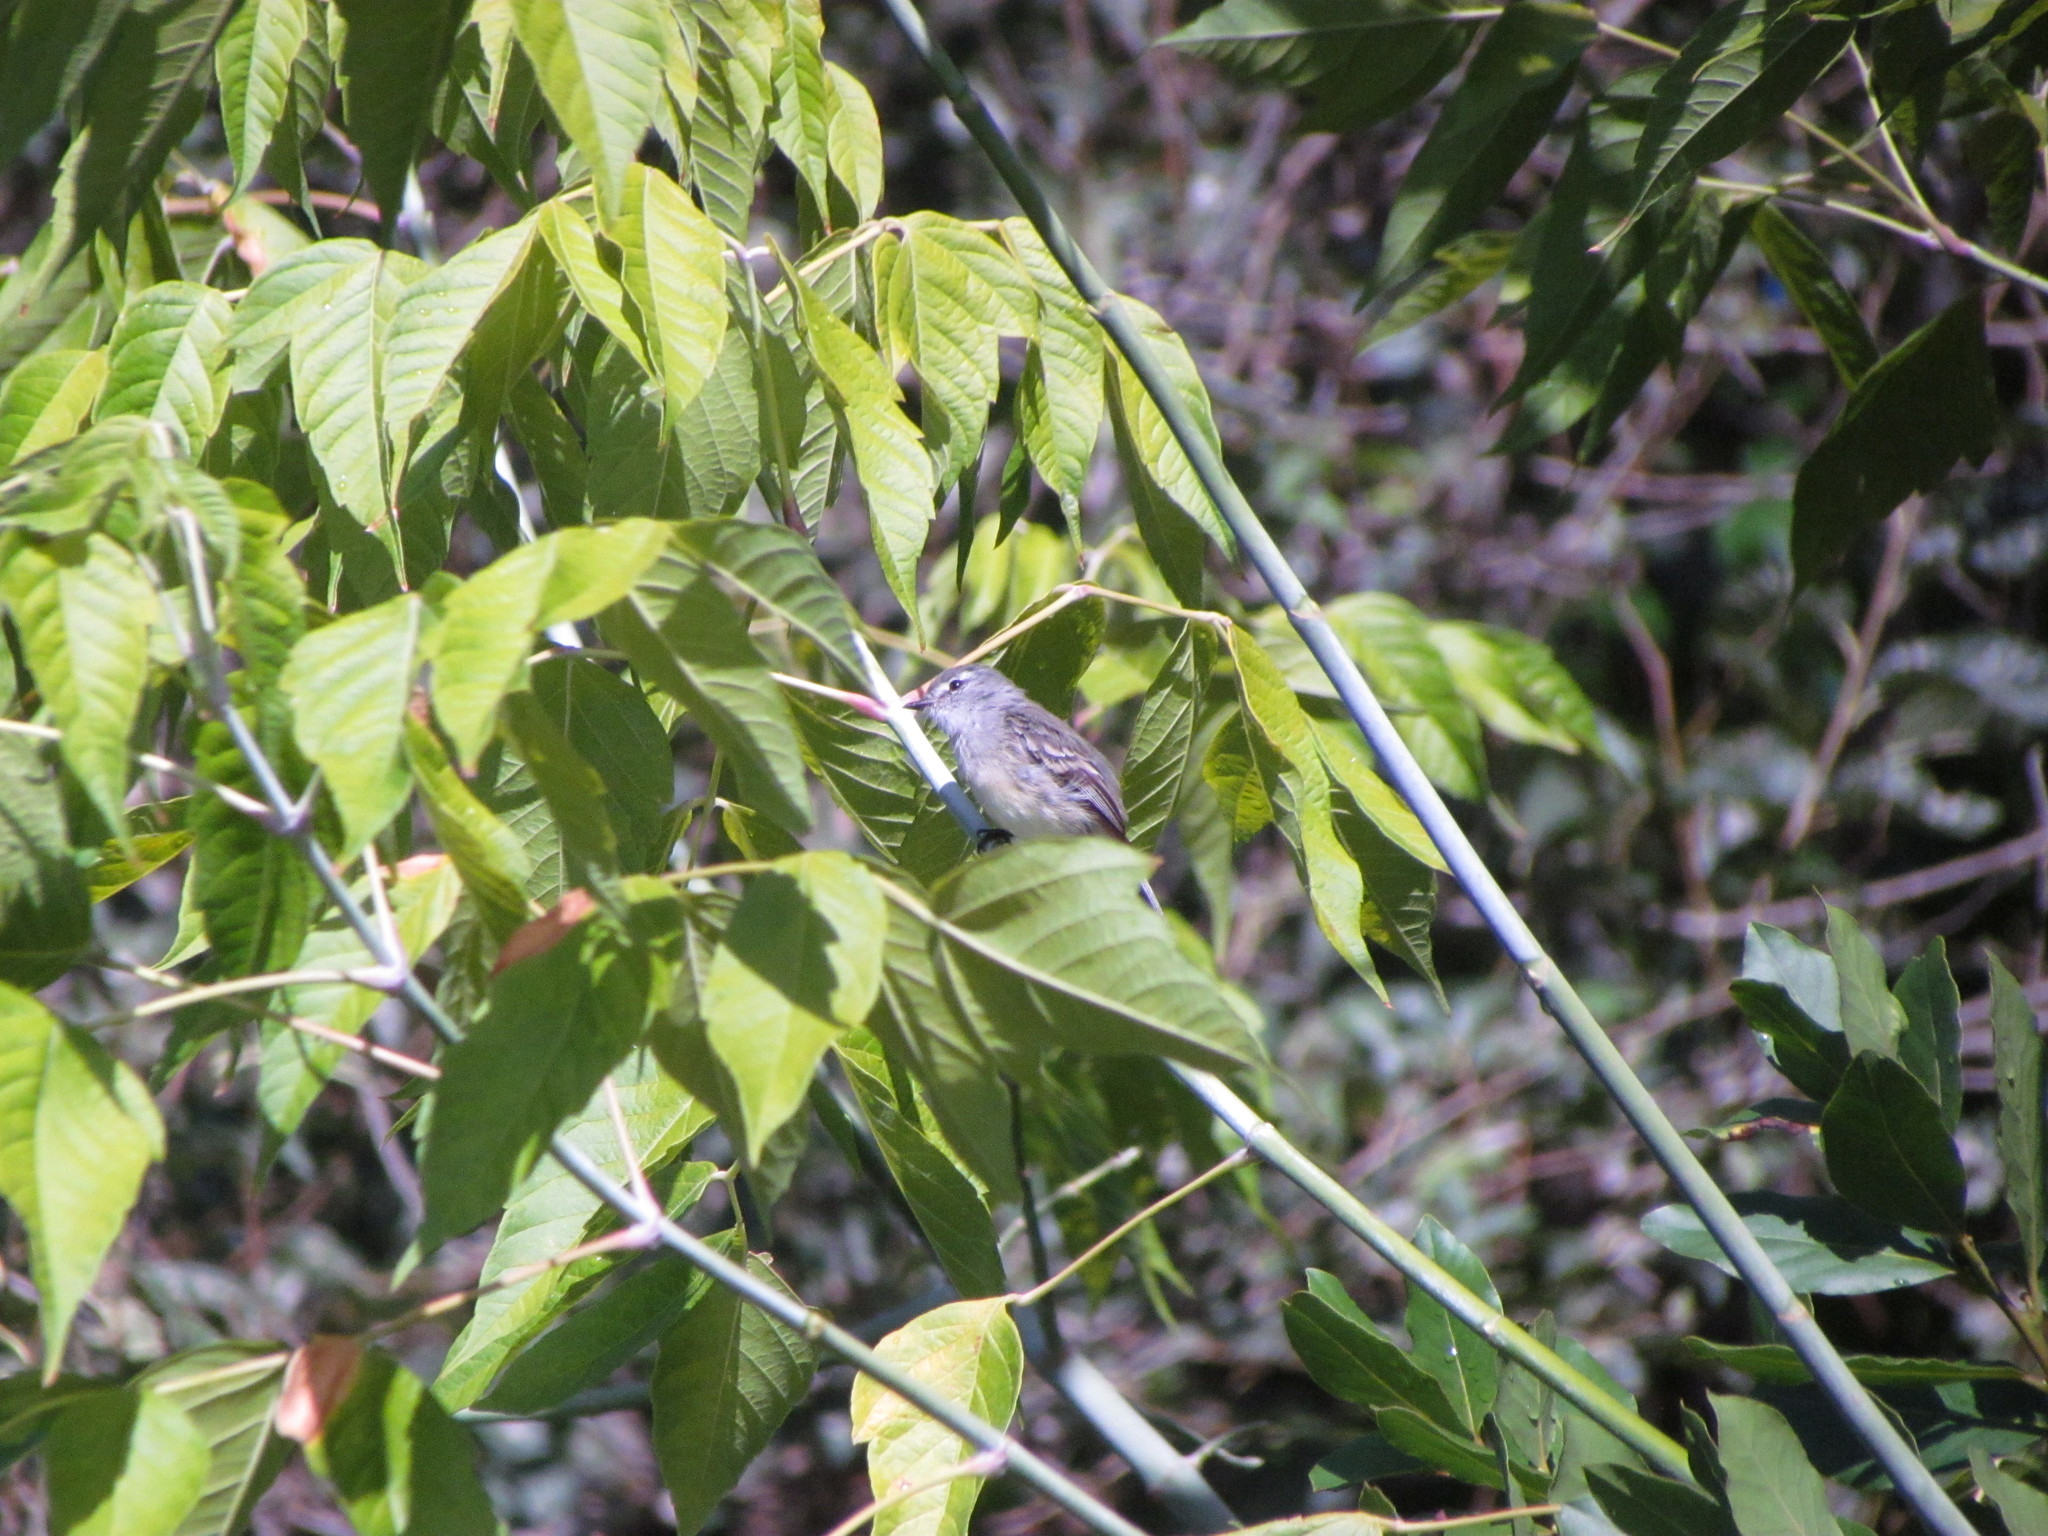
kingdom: Animalia
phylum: Chordata
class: Aves
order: Passeriformes
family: Tyrannidae
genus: Serpophaga
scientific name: Serpophaga subcristata
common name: White-crested tyrannulet
